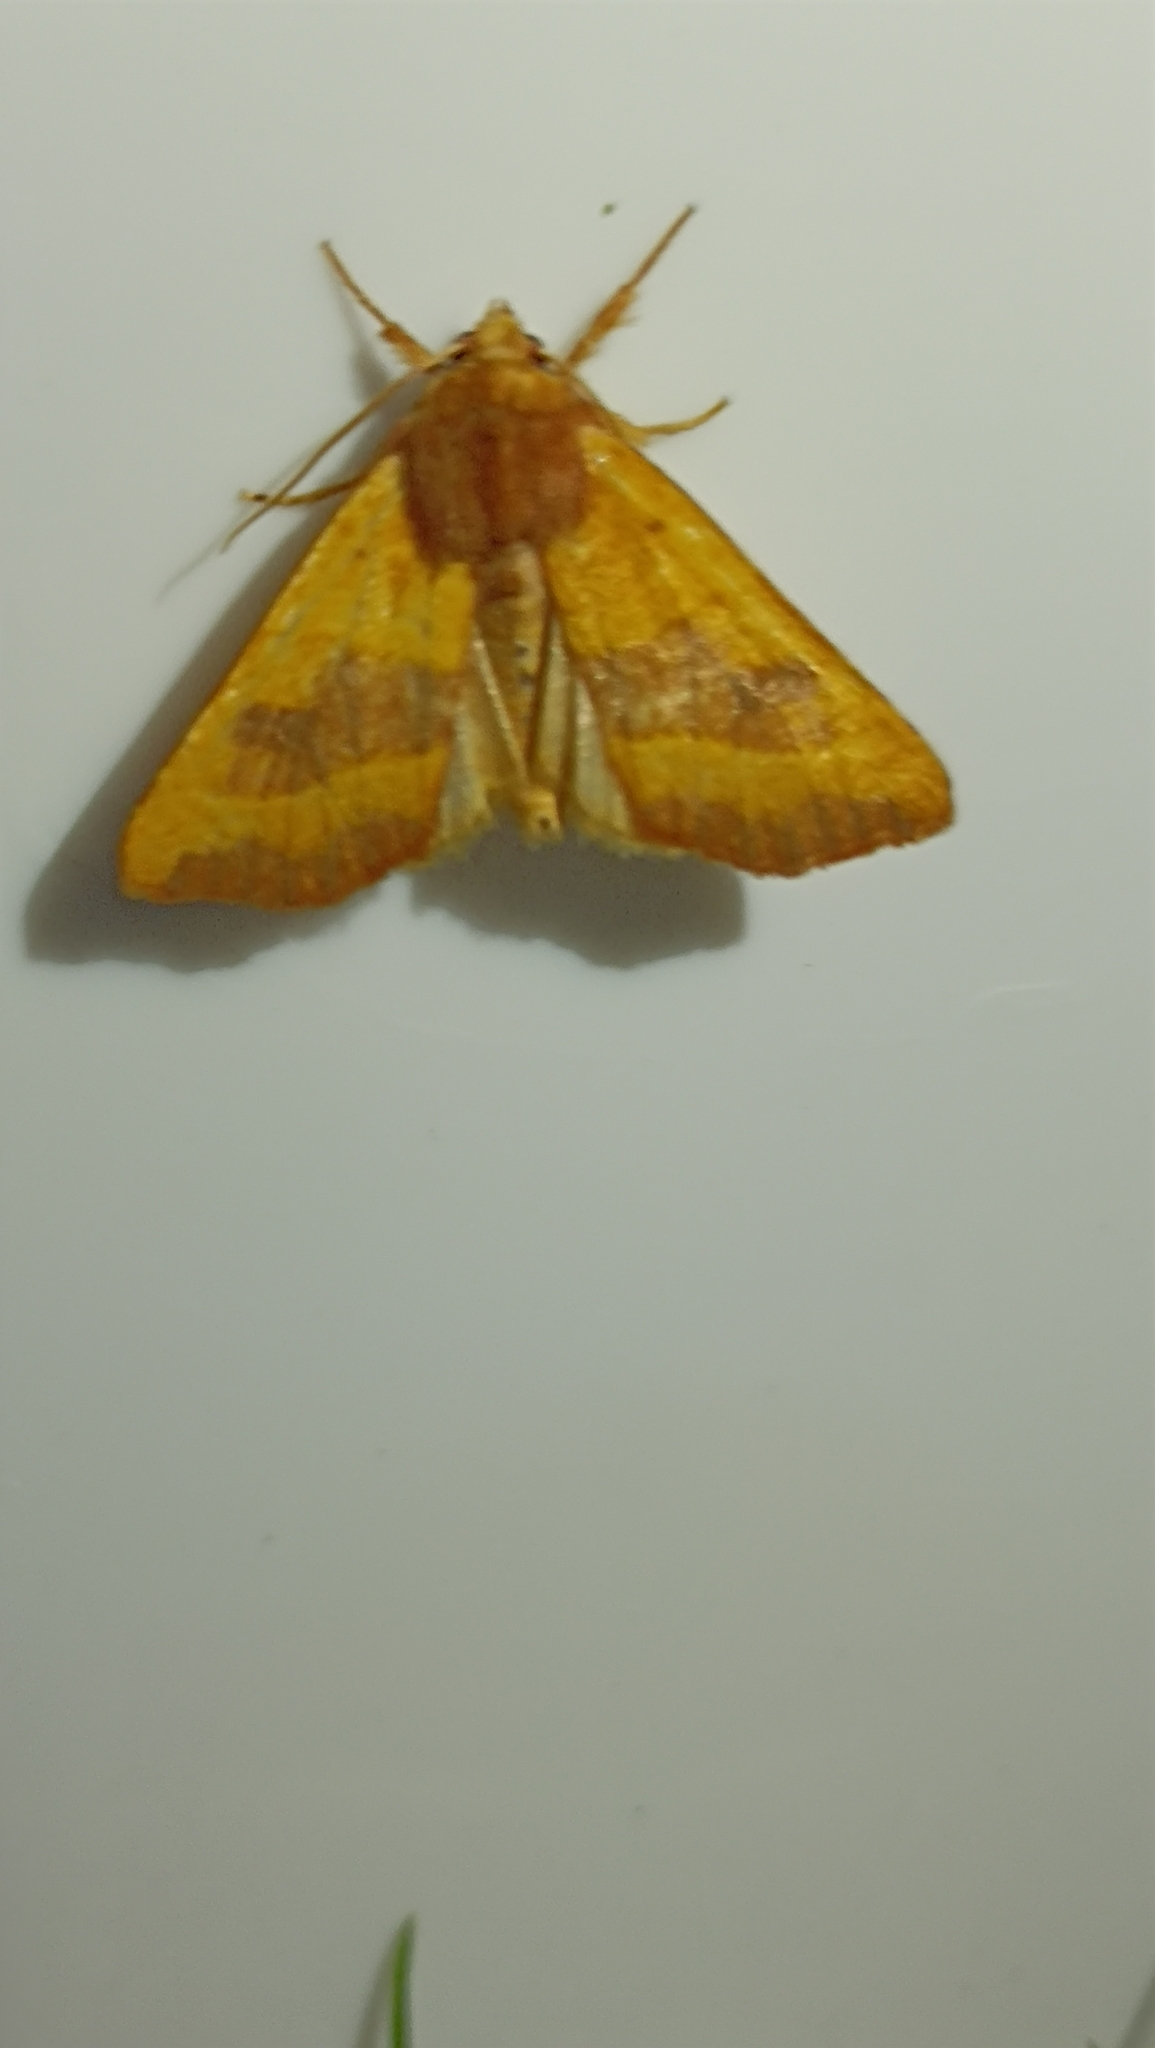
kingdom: Animalia
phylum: Arthropoda
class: Insecta
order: Lepidoptera
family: Noctuidae
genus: Atethmia
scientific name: Atethmia centrago
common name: Centre-barred sallow
